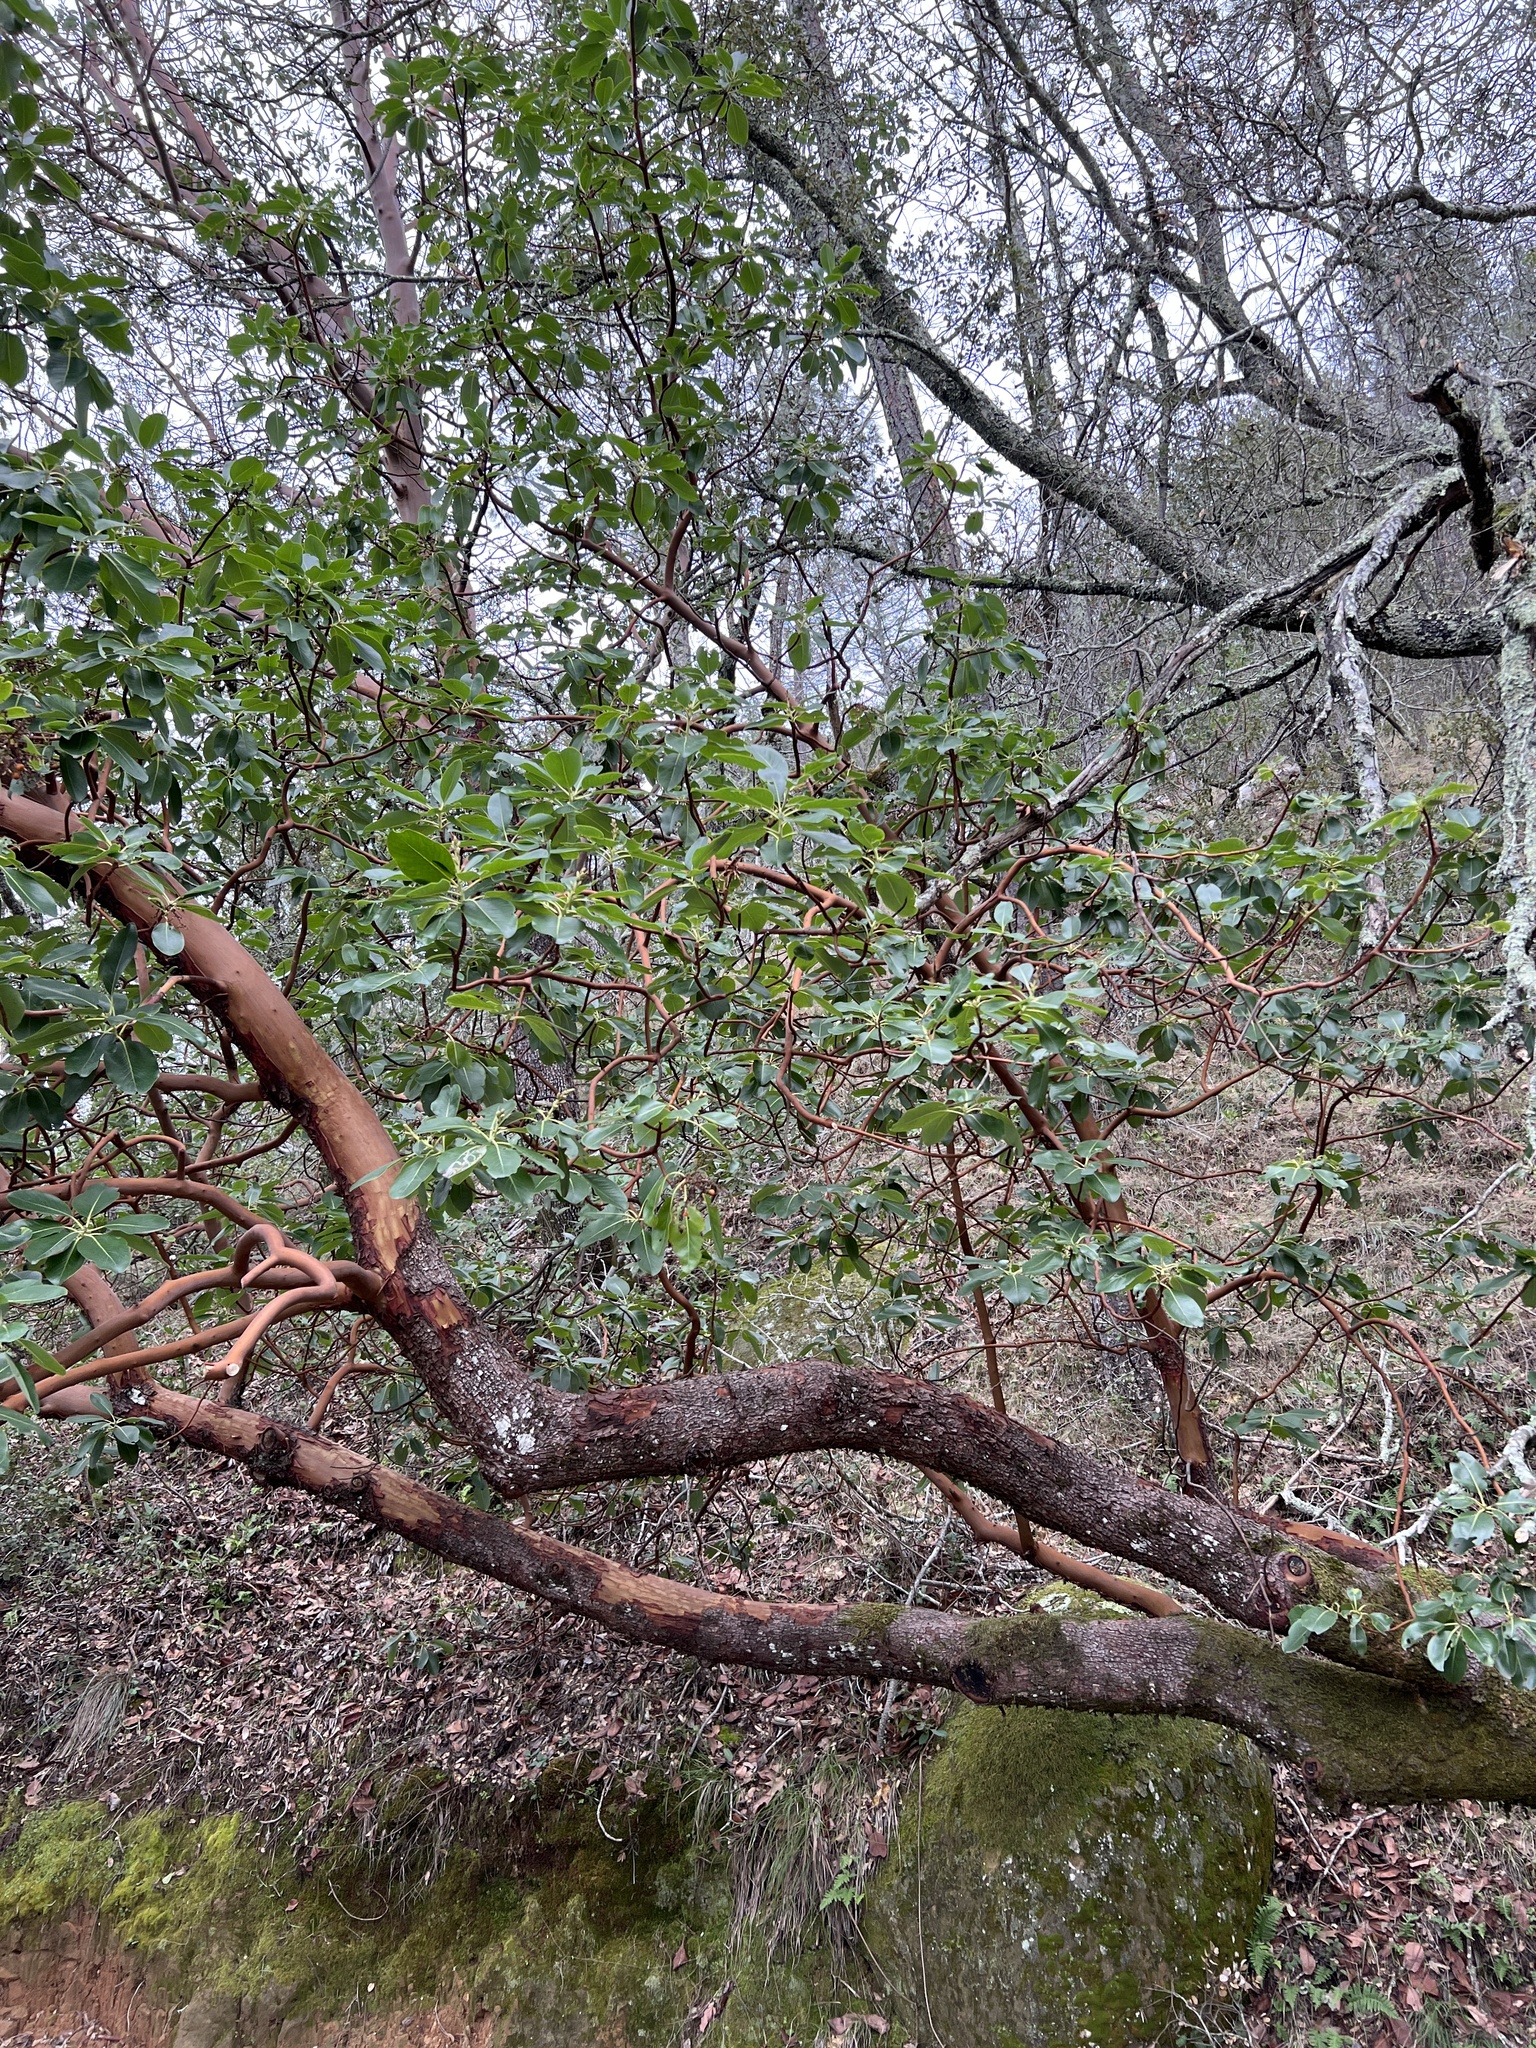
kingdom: Plantae
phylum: Tracheophyta
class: Magnoliopsida
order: Ericales
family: Ericaceae
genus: Arbutus
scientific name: Arbutus menziesii
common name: Pacific madrone
